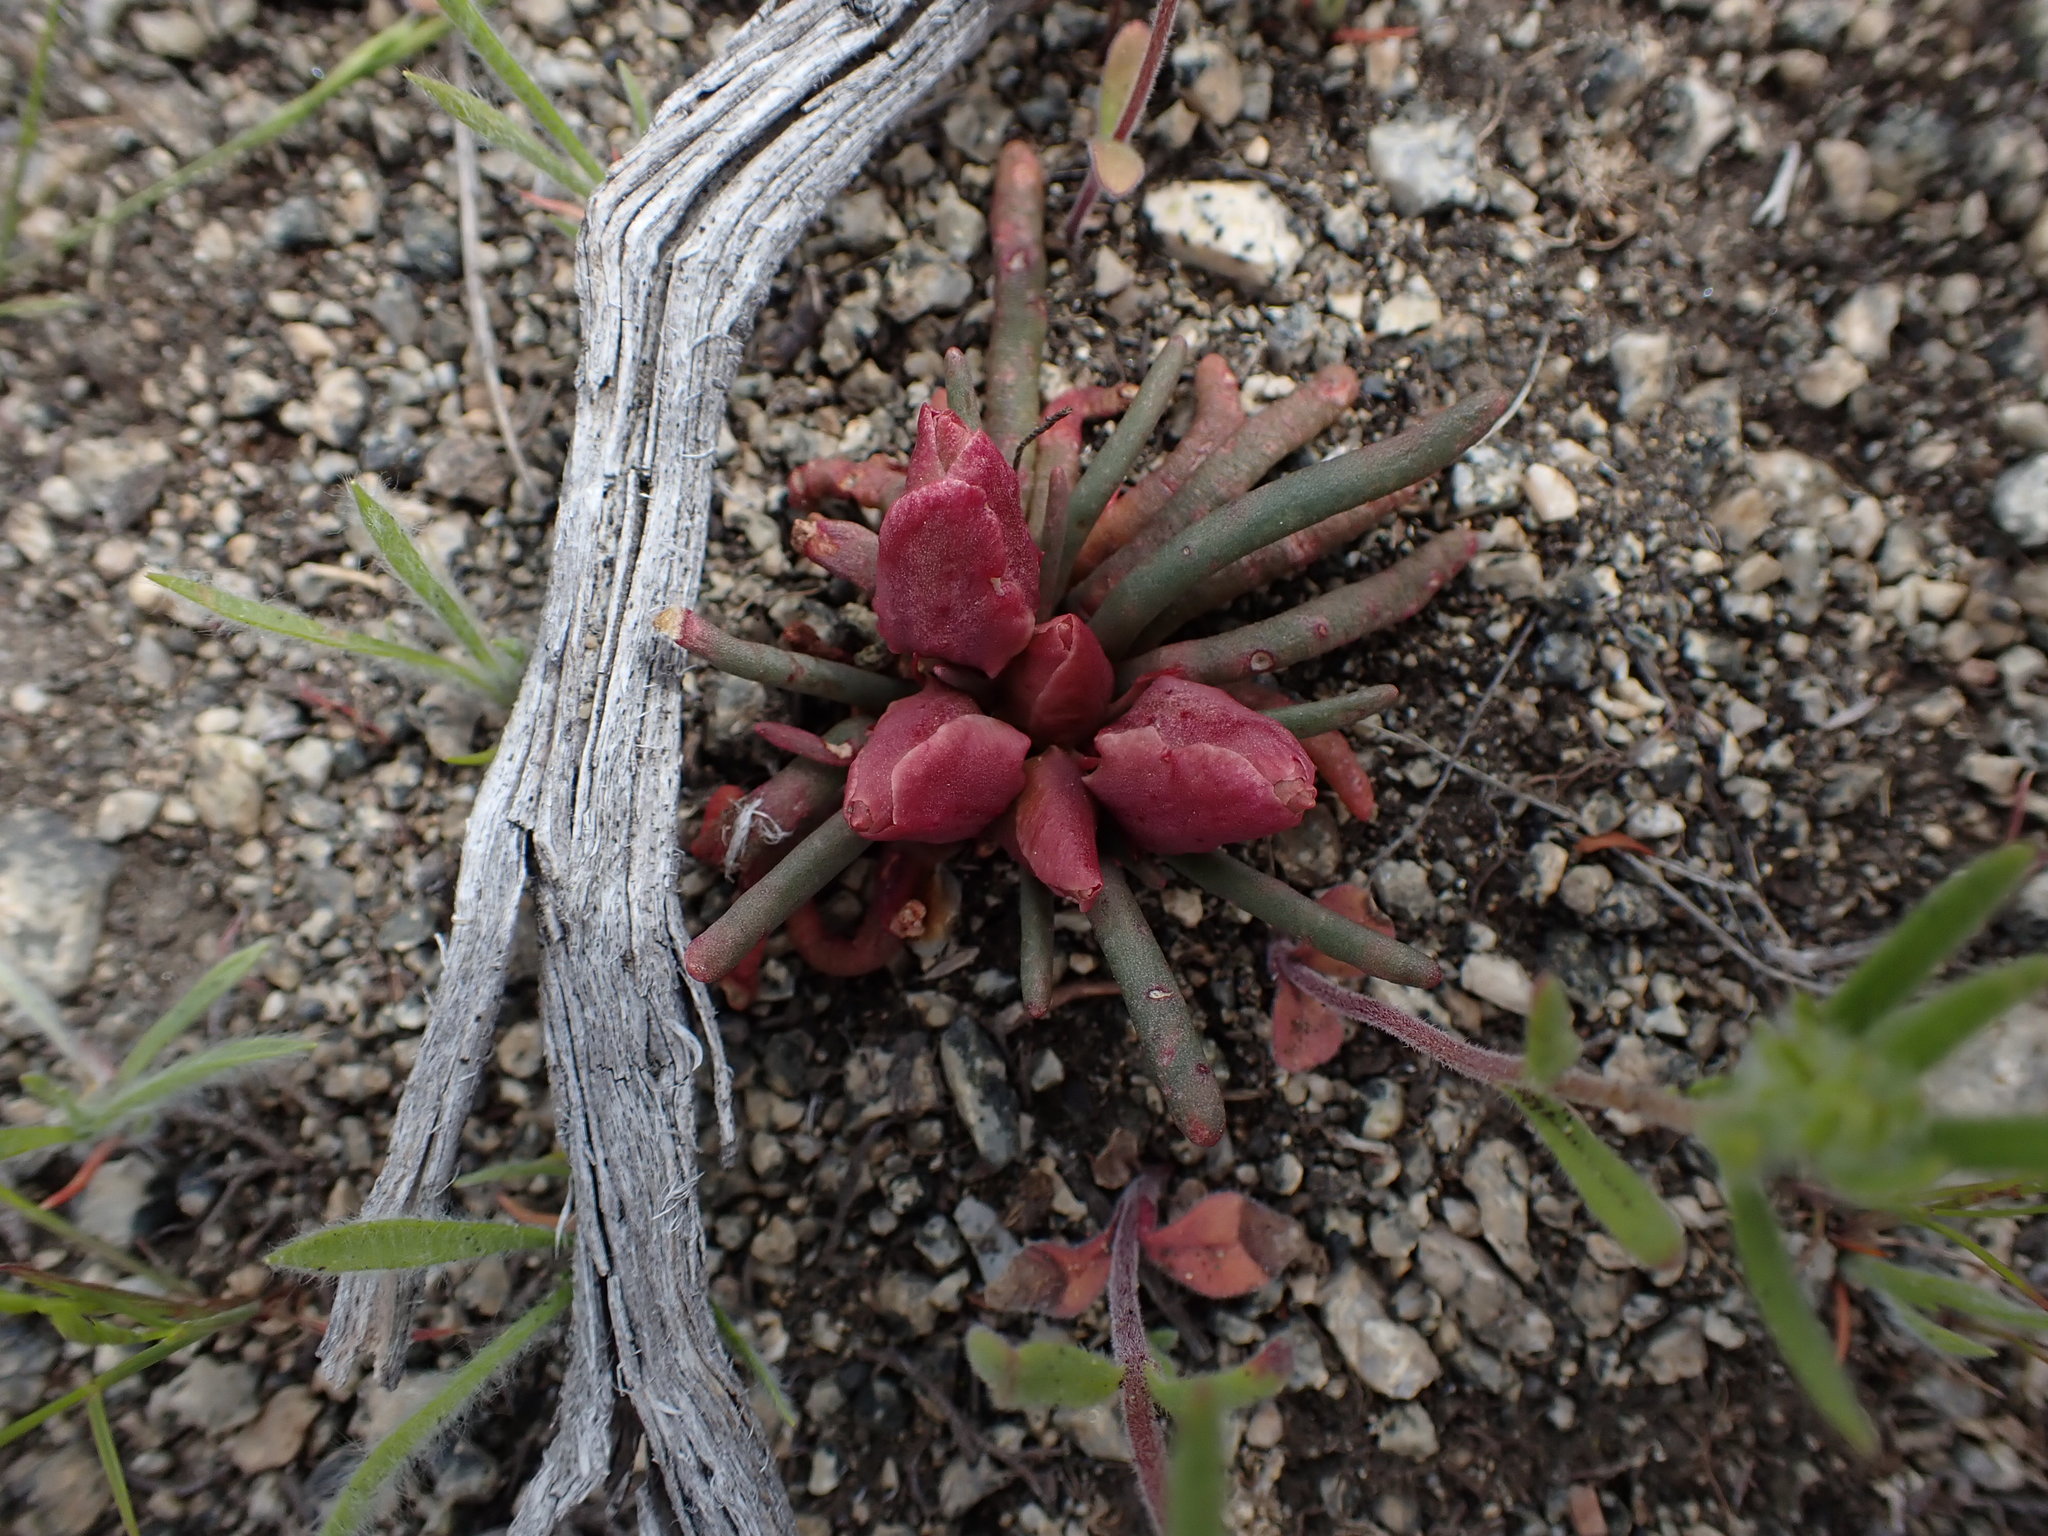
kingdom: Plantae
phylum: Tracheophyta
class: Magnoliopsida
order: Caryophyllales
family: Montiaceae
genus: Lewisia
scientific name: Lewisia rediviva
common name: Bitter-root
